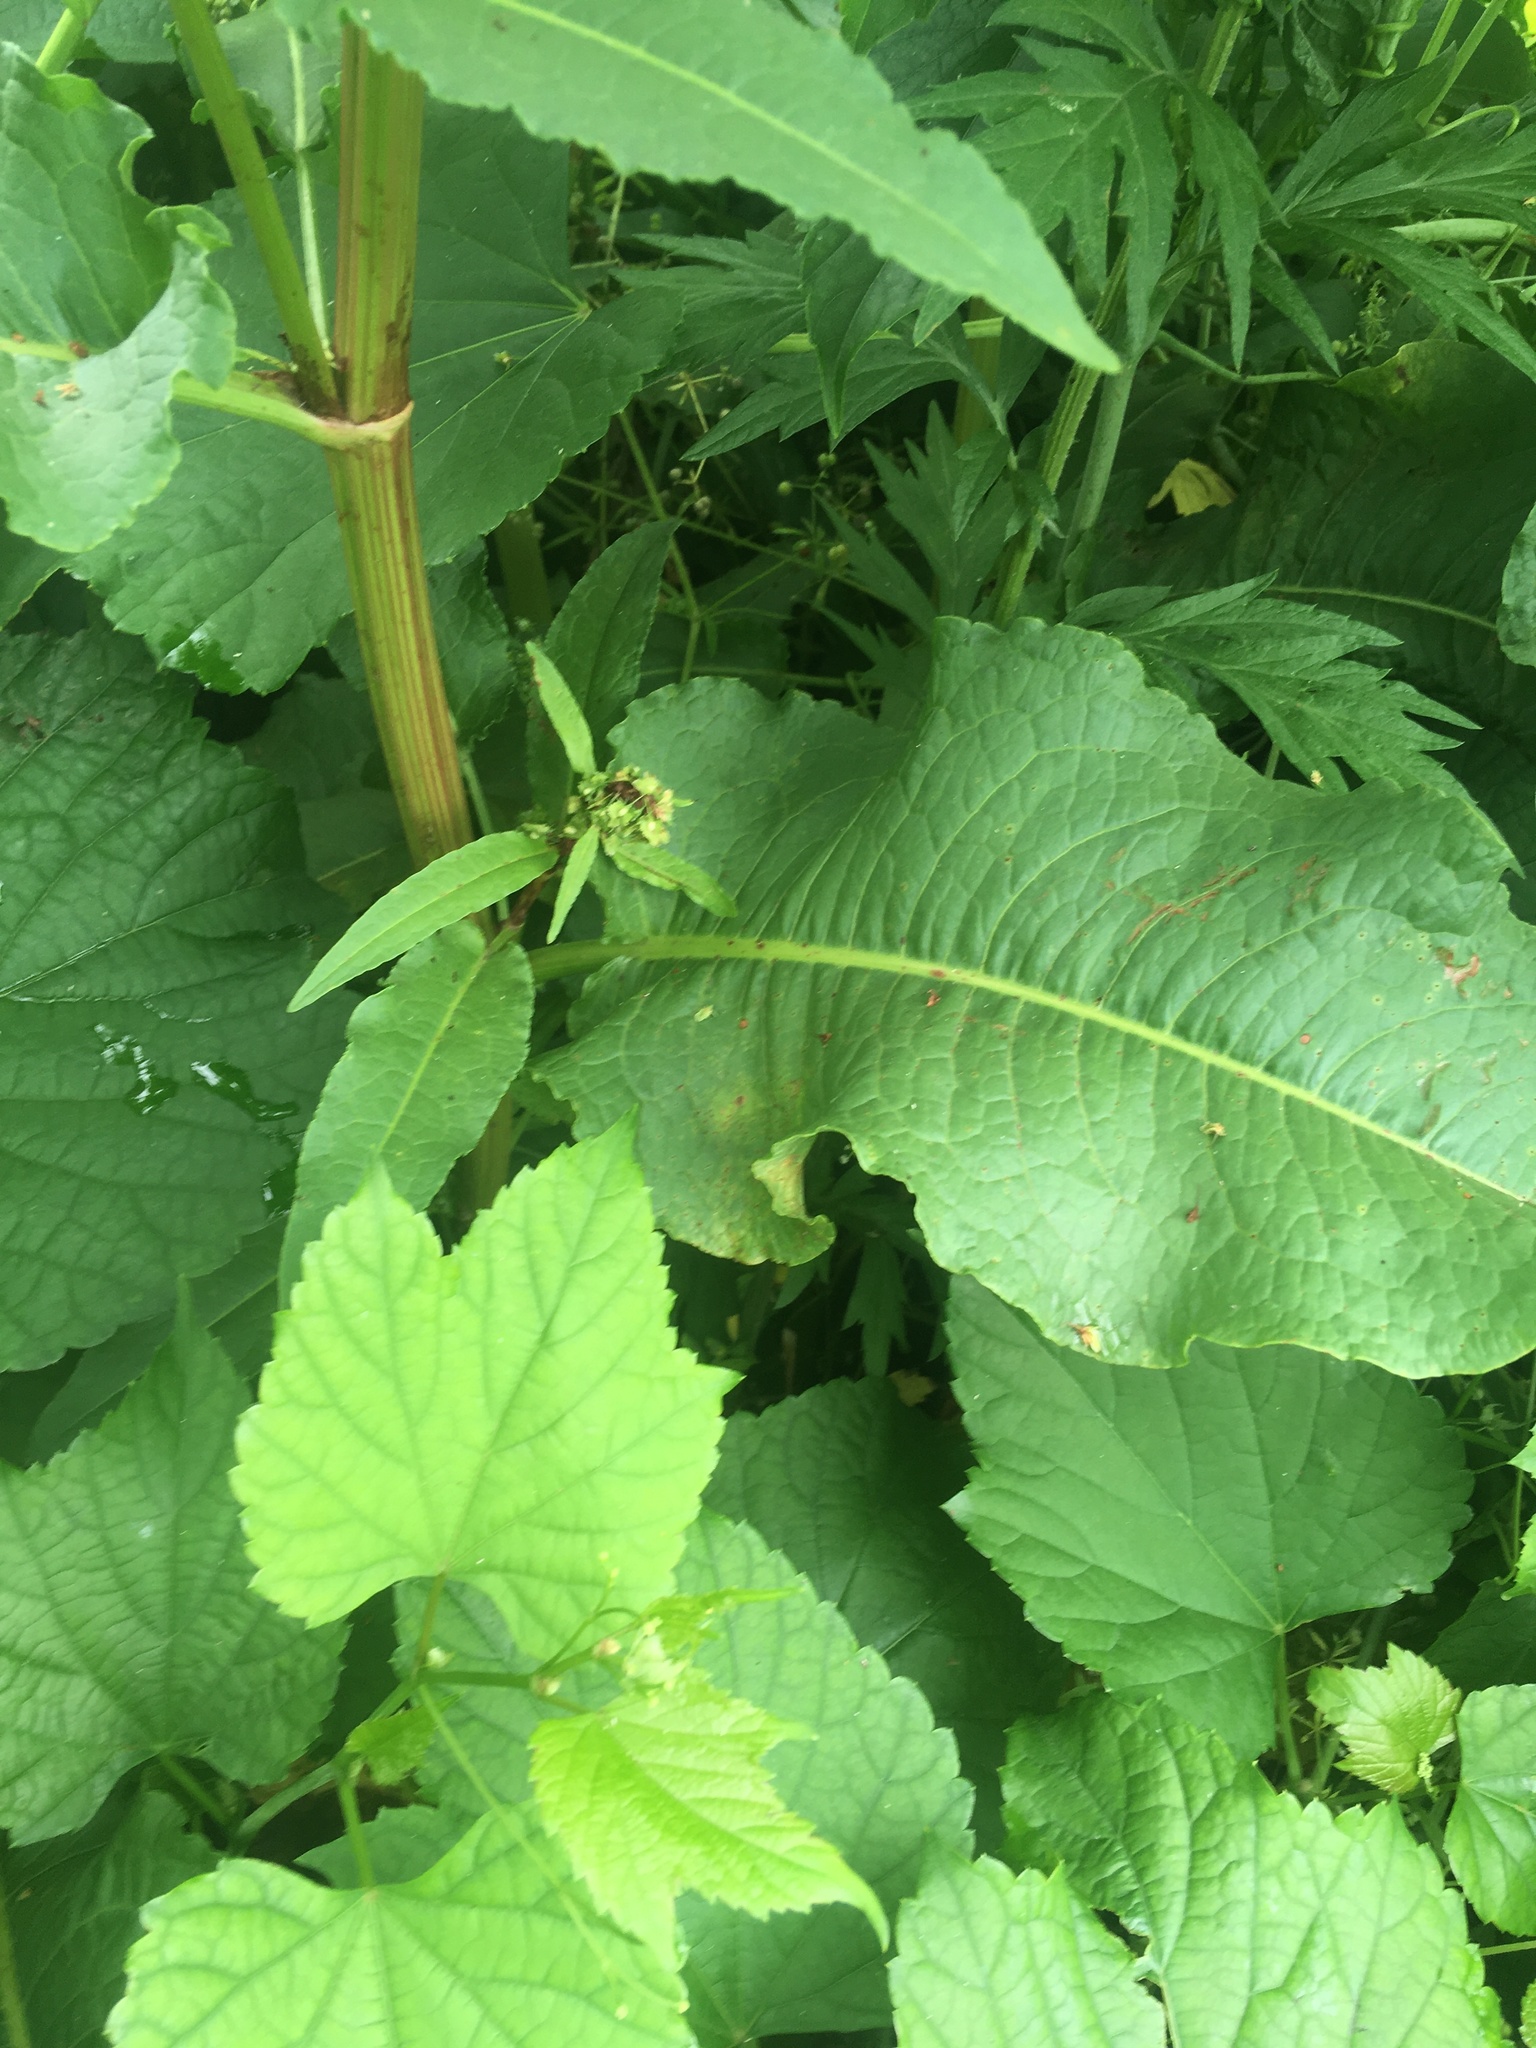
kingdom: Plantae
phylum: Tracheophyta
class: Magnoliopsida
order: Caryophyllales
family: Polygonaceae
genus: Rumex
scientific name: Rumex cristatus
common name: Greek dock
